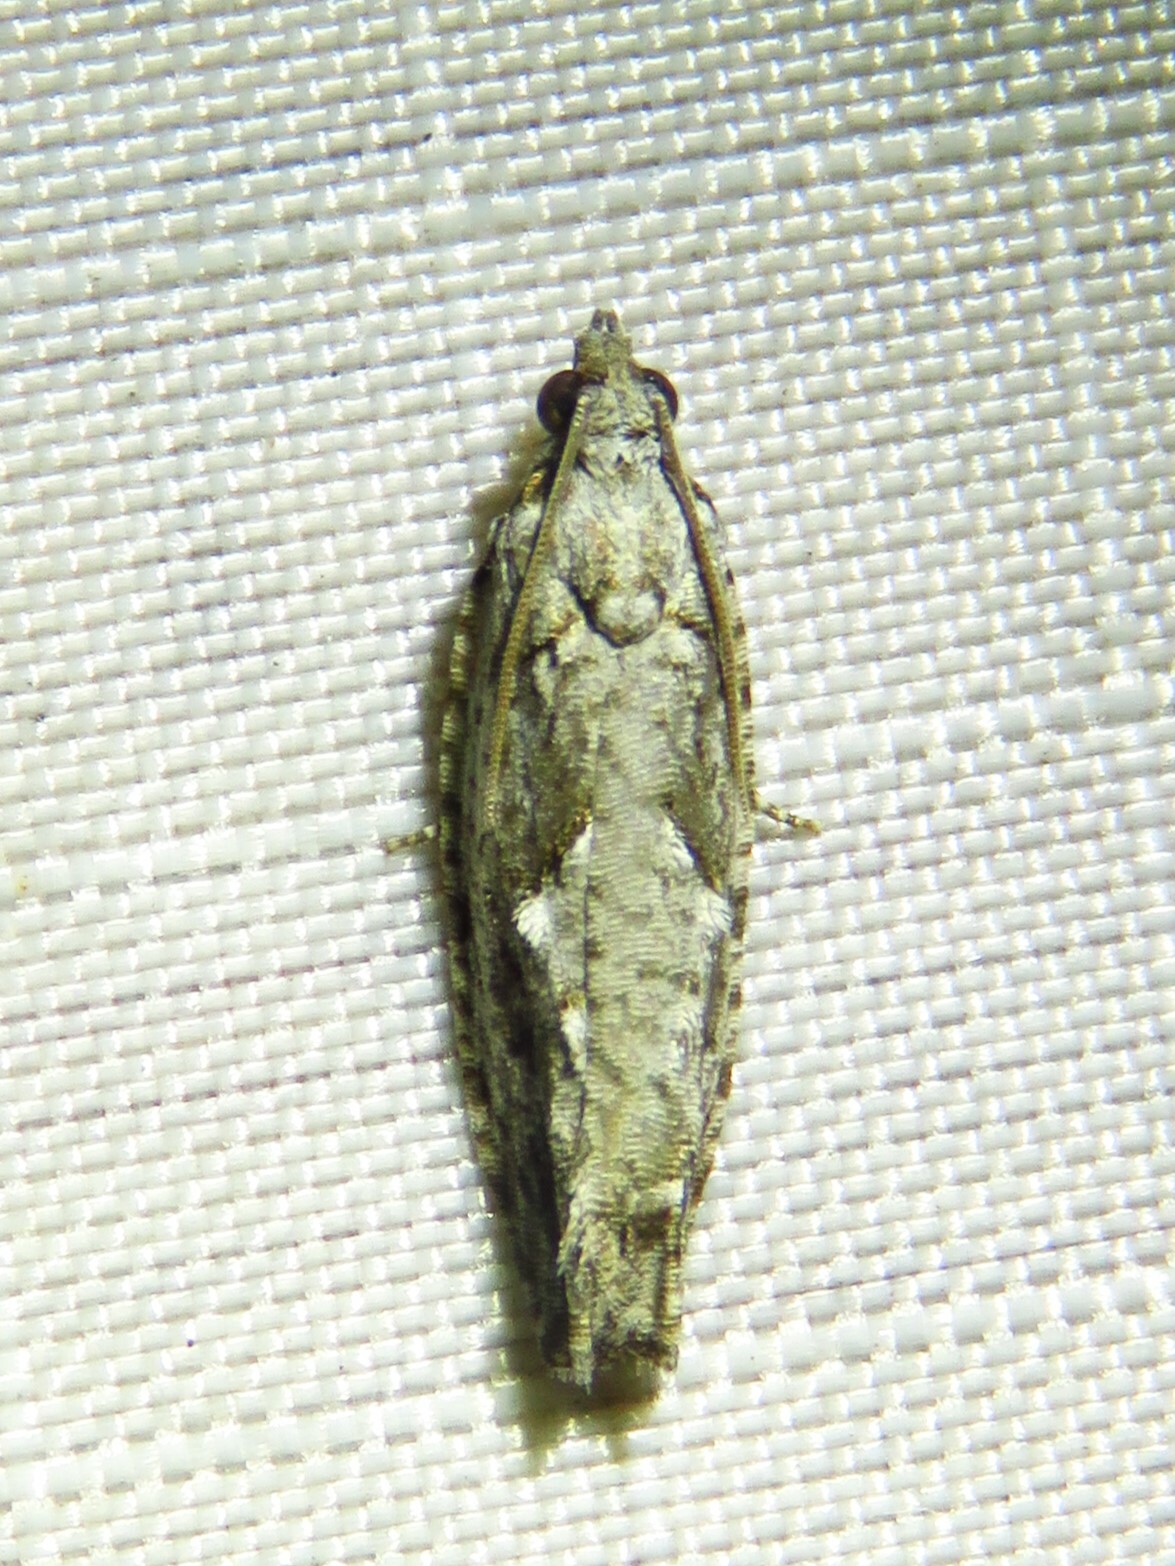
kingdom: Animalia
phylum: Arthropoda
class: Insecta
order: Lepidoptera
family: Tortricidae
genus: Gretchena
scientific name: Gretchena bolliana
